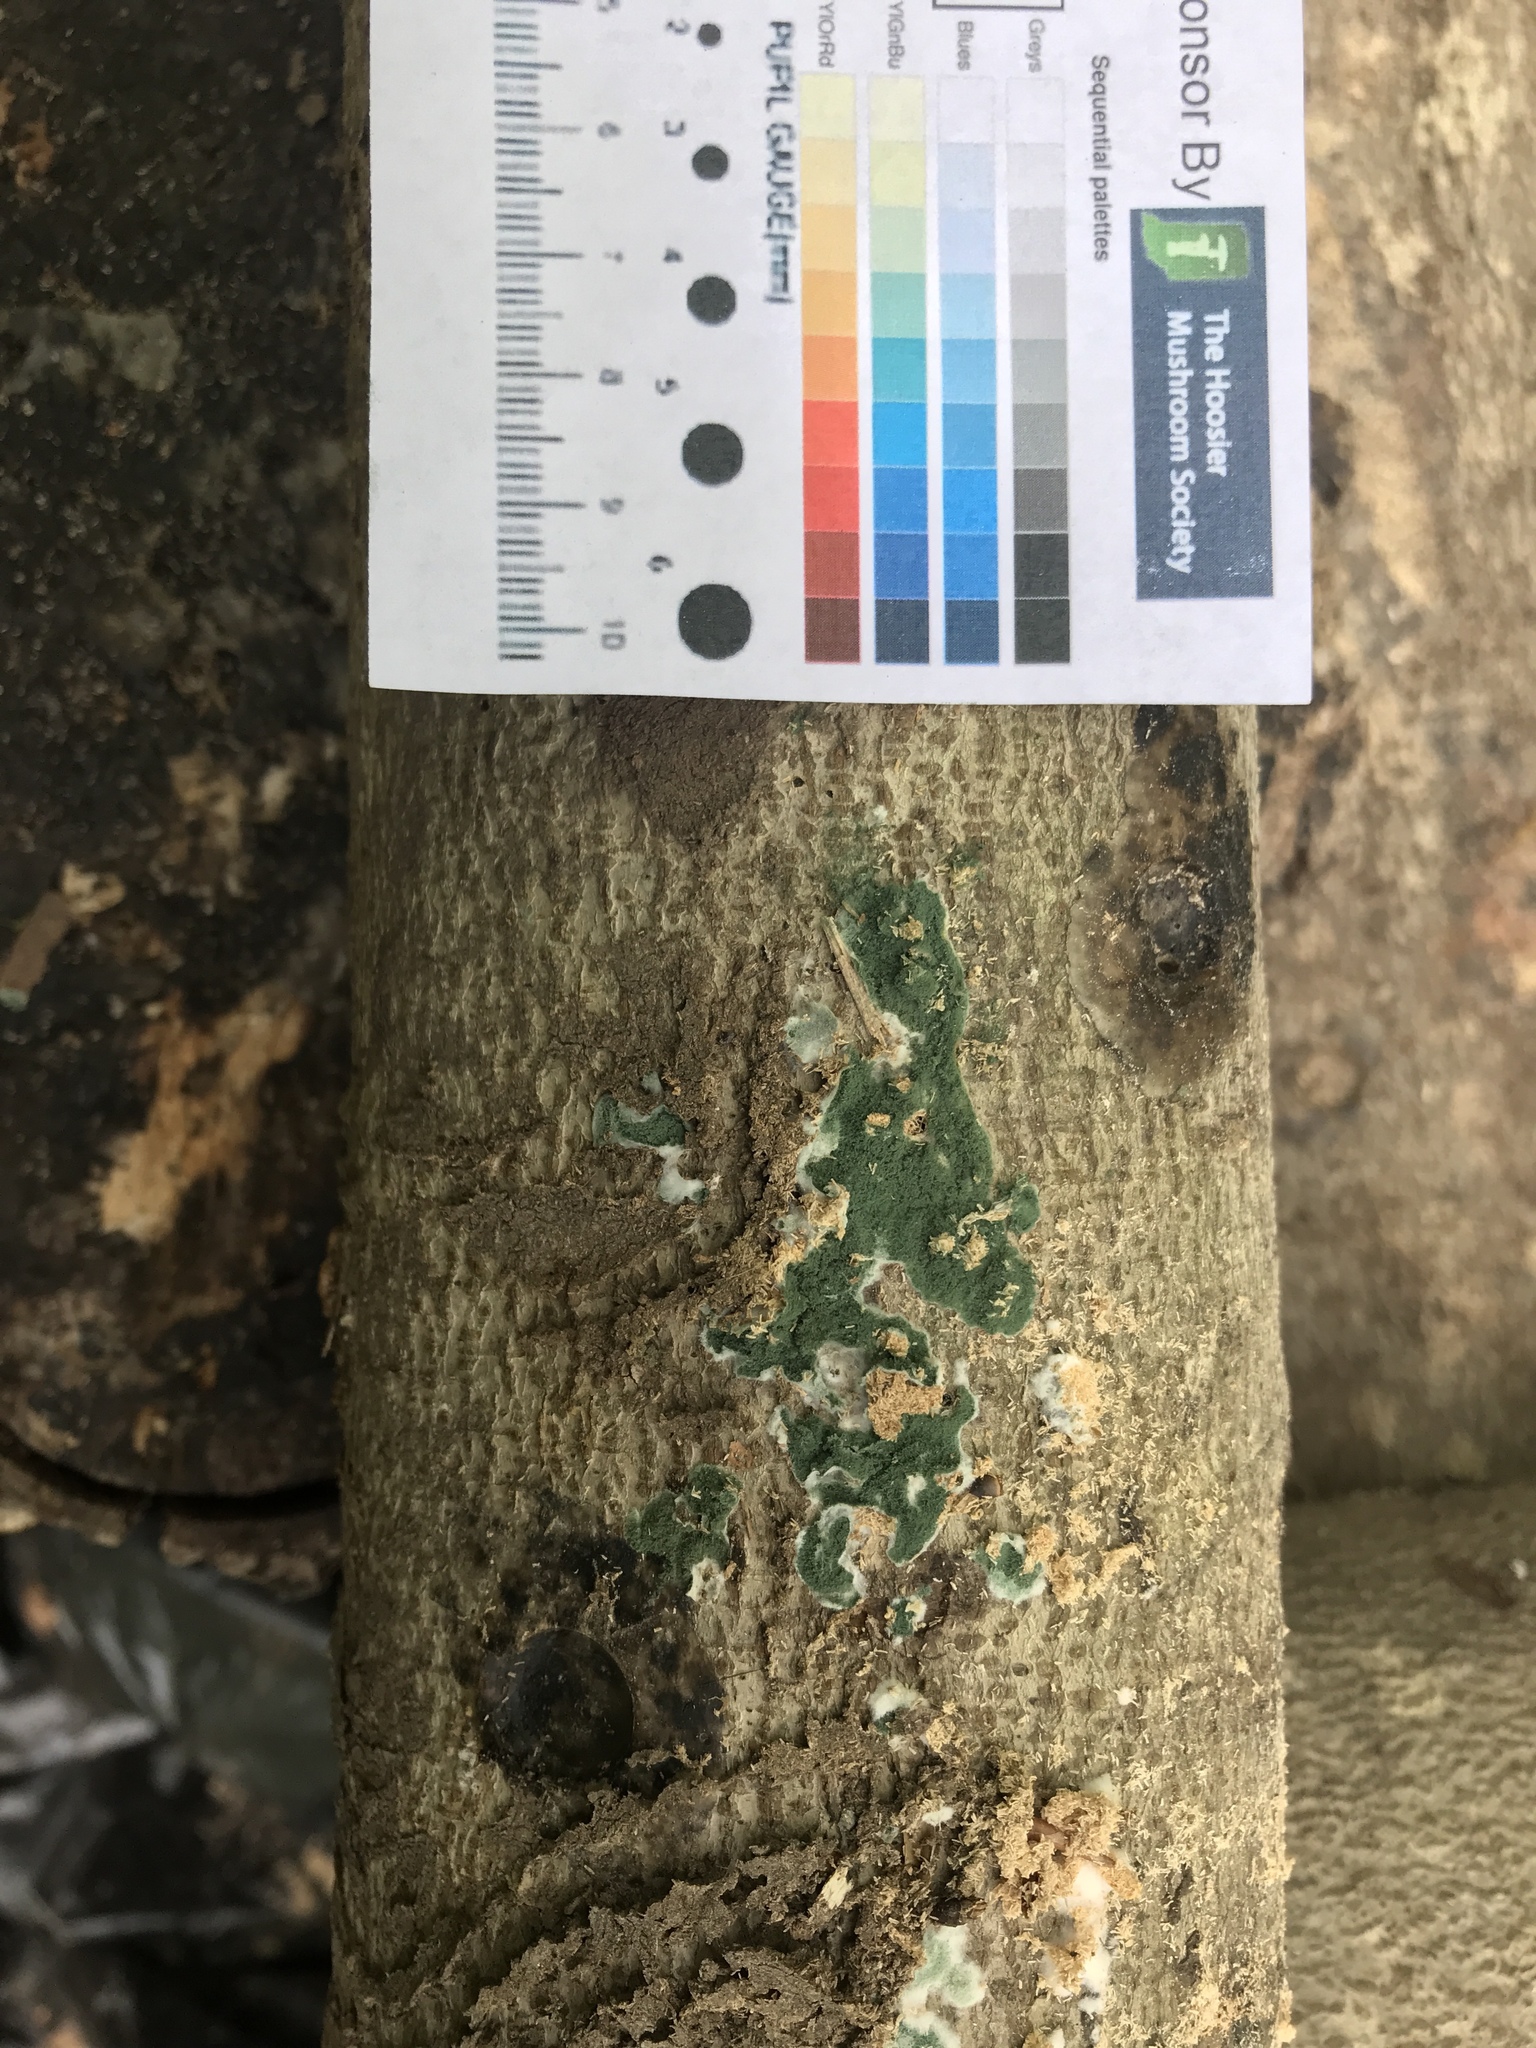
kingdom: Fungi
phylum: Ascomycota
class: Sordariomycetes
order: Hypocreales
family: Hypocreaceae
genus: Trichoderma
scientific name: Trichoderma stilbohypoxyli
